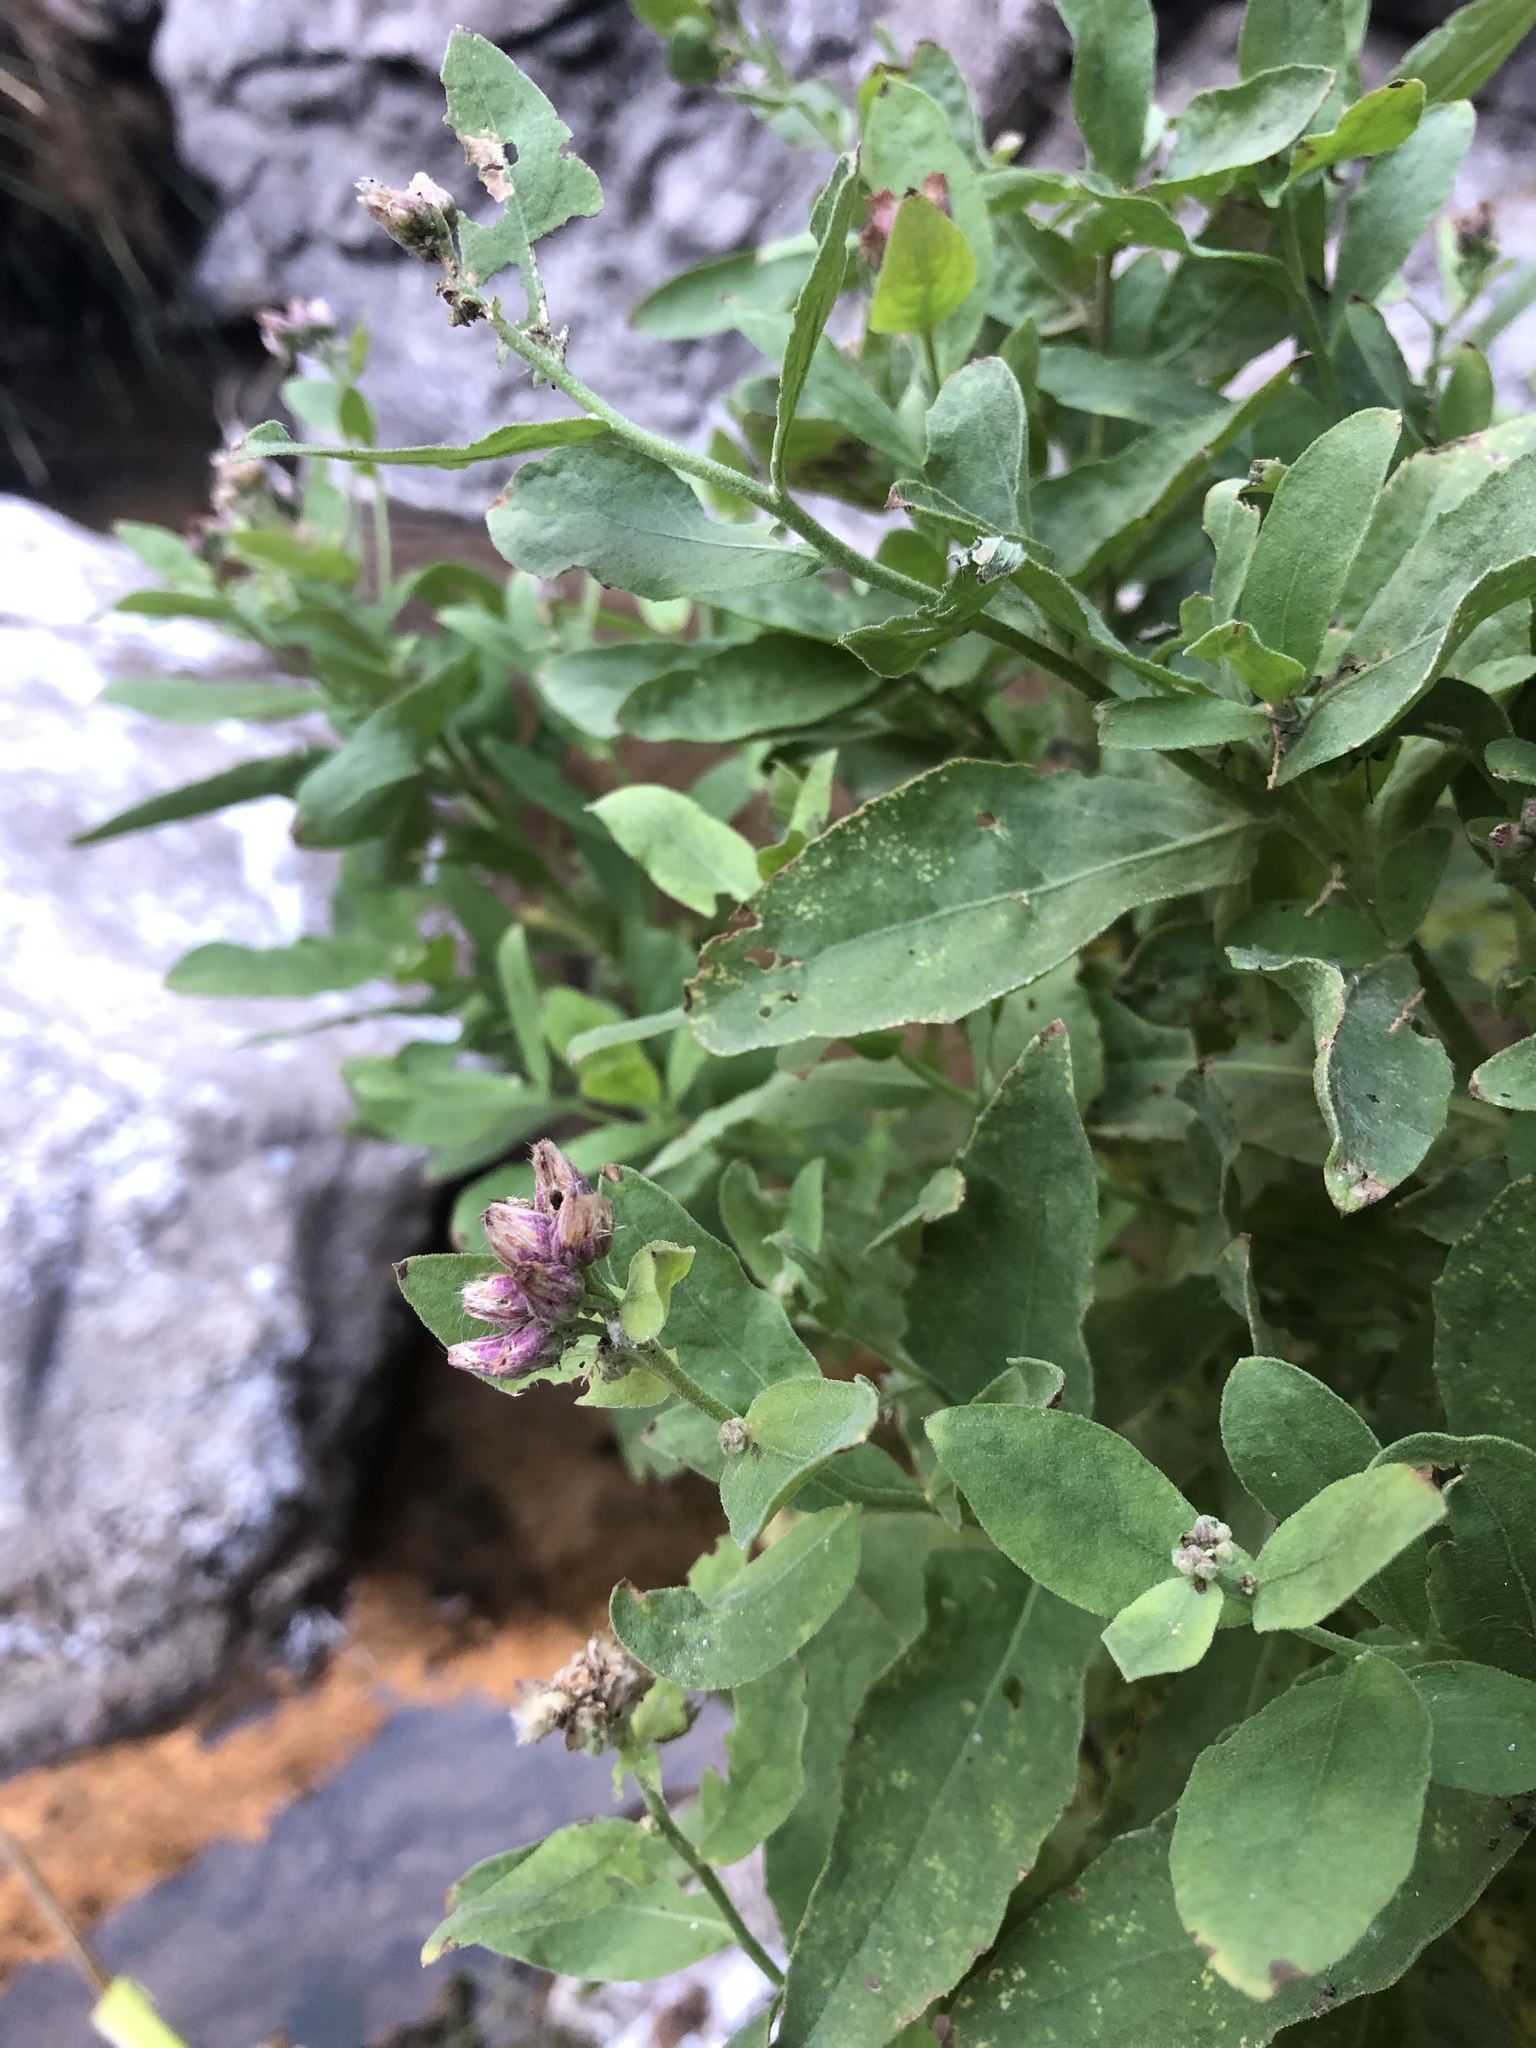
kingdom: Plantae
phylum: Tracheophyta
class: Magnoliopsida
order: Asterales
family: Asteraceae
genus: Pluchea
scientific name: Pluchea odorata
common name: Saltmarsh fleabane
